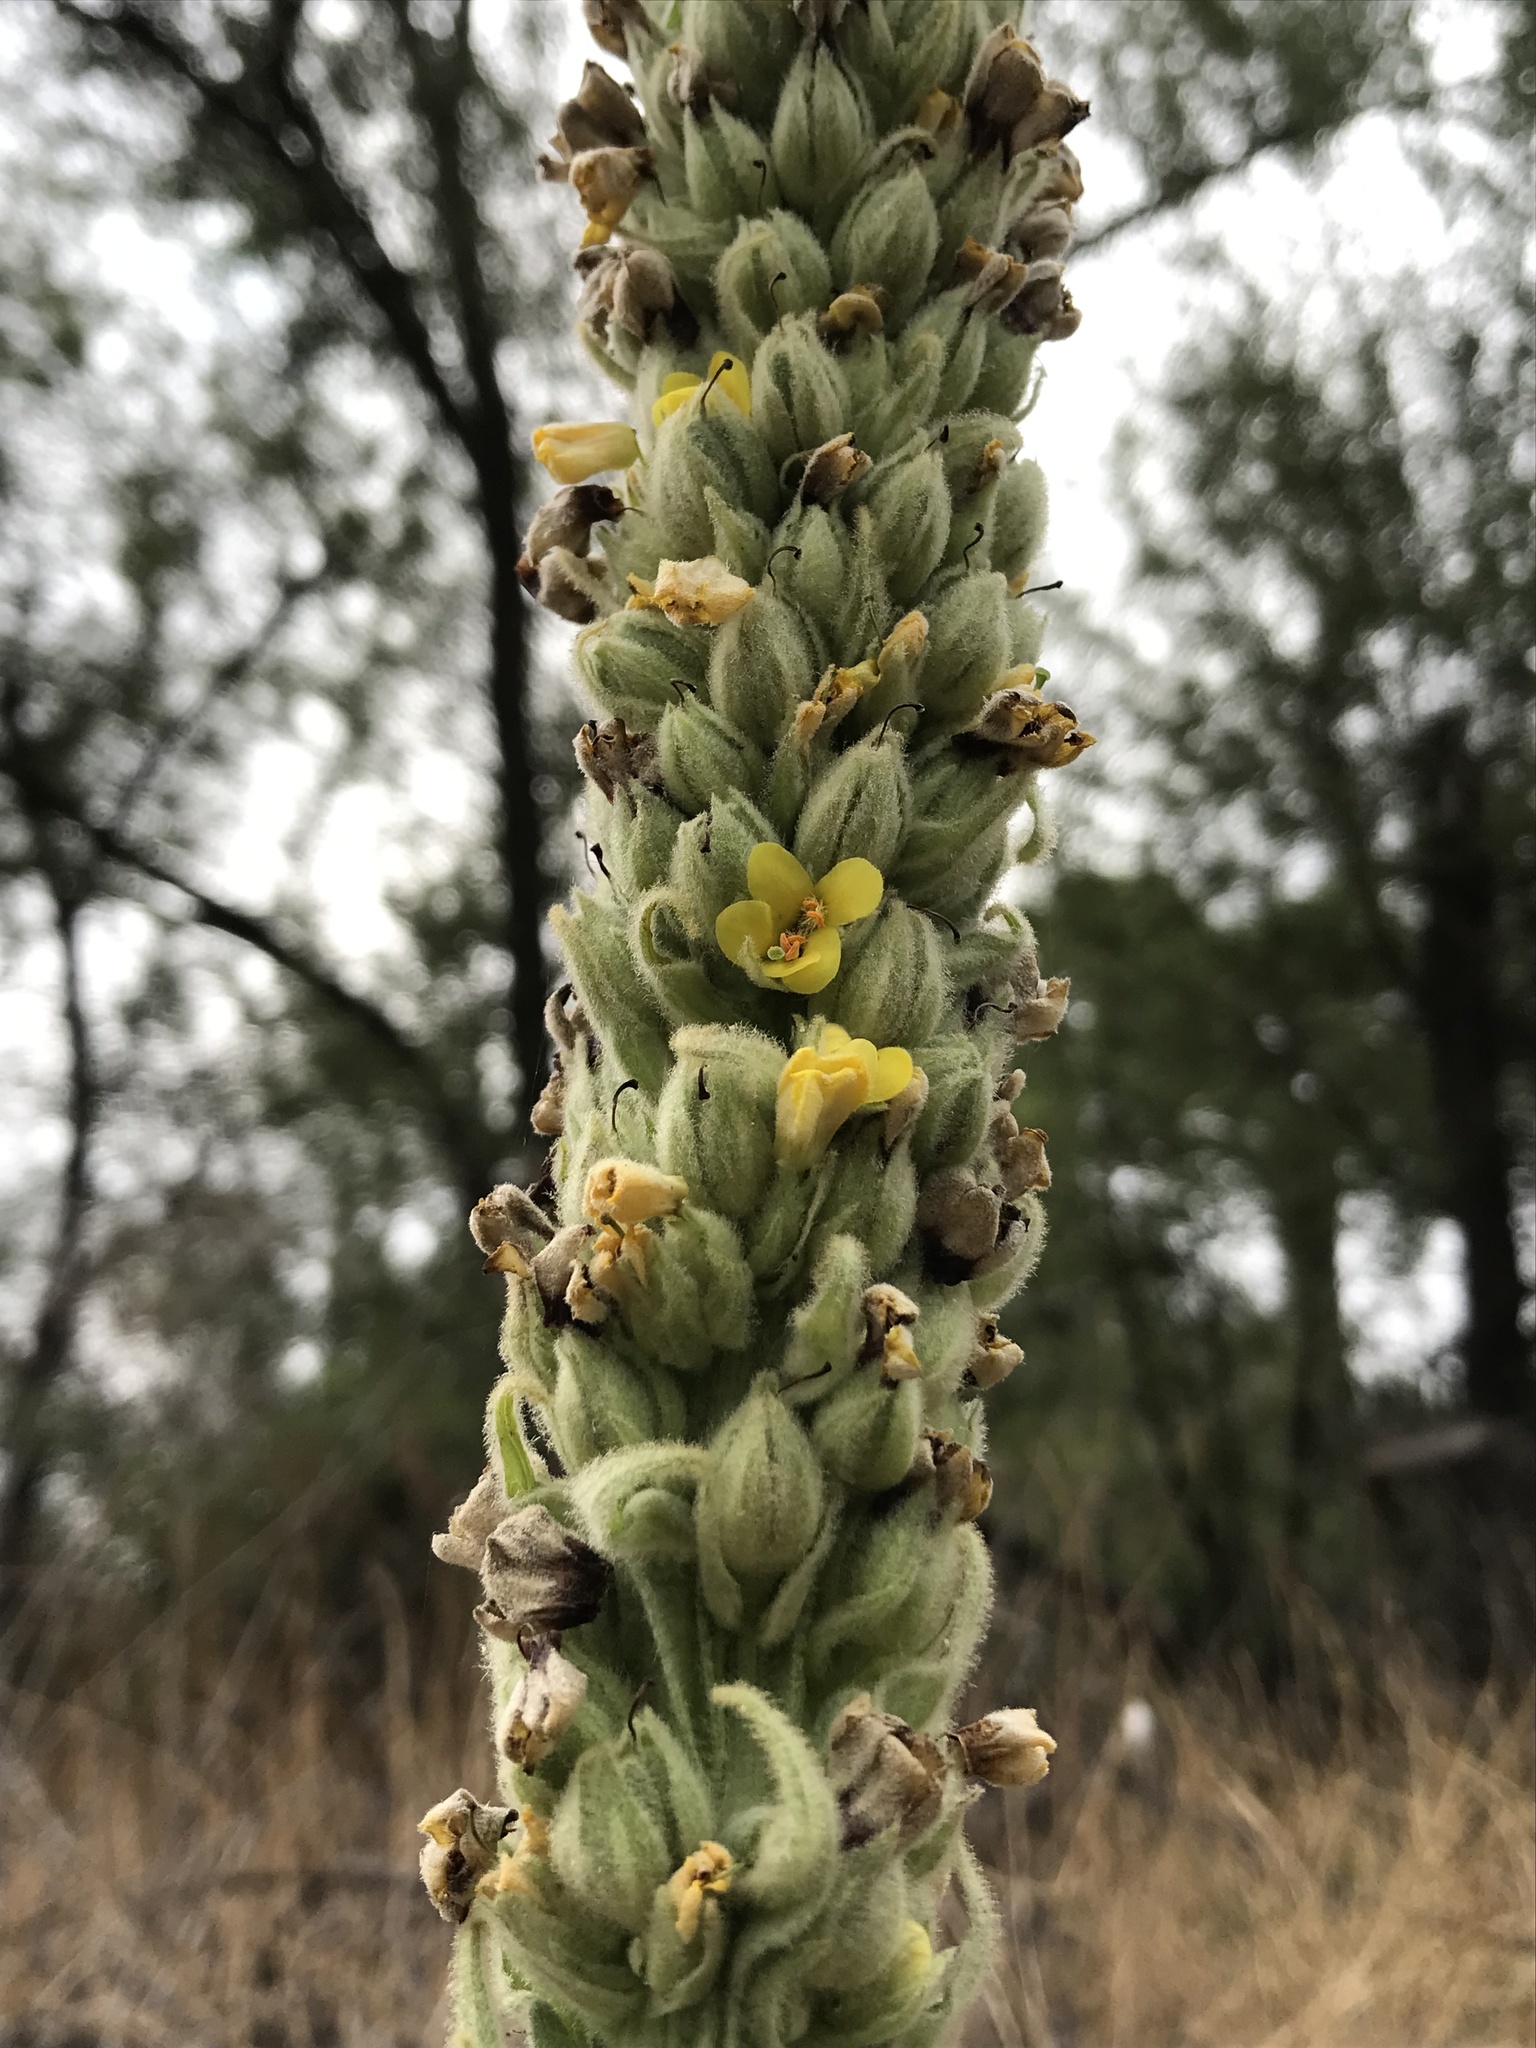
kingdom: Plantae
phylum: Tracheophyta
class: Magnoliopsida
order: Lamiales
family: Scrophulariaceae
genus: Verbascum
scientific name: Verbascum thapsus
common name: Common mullein
